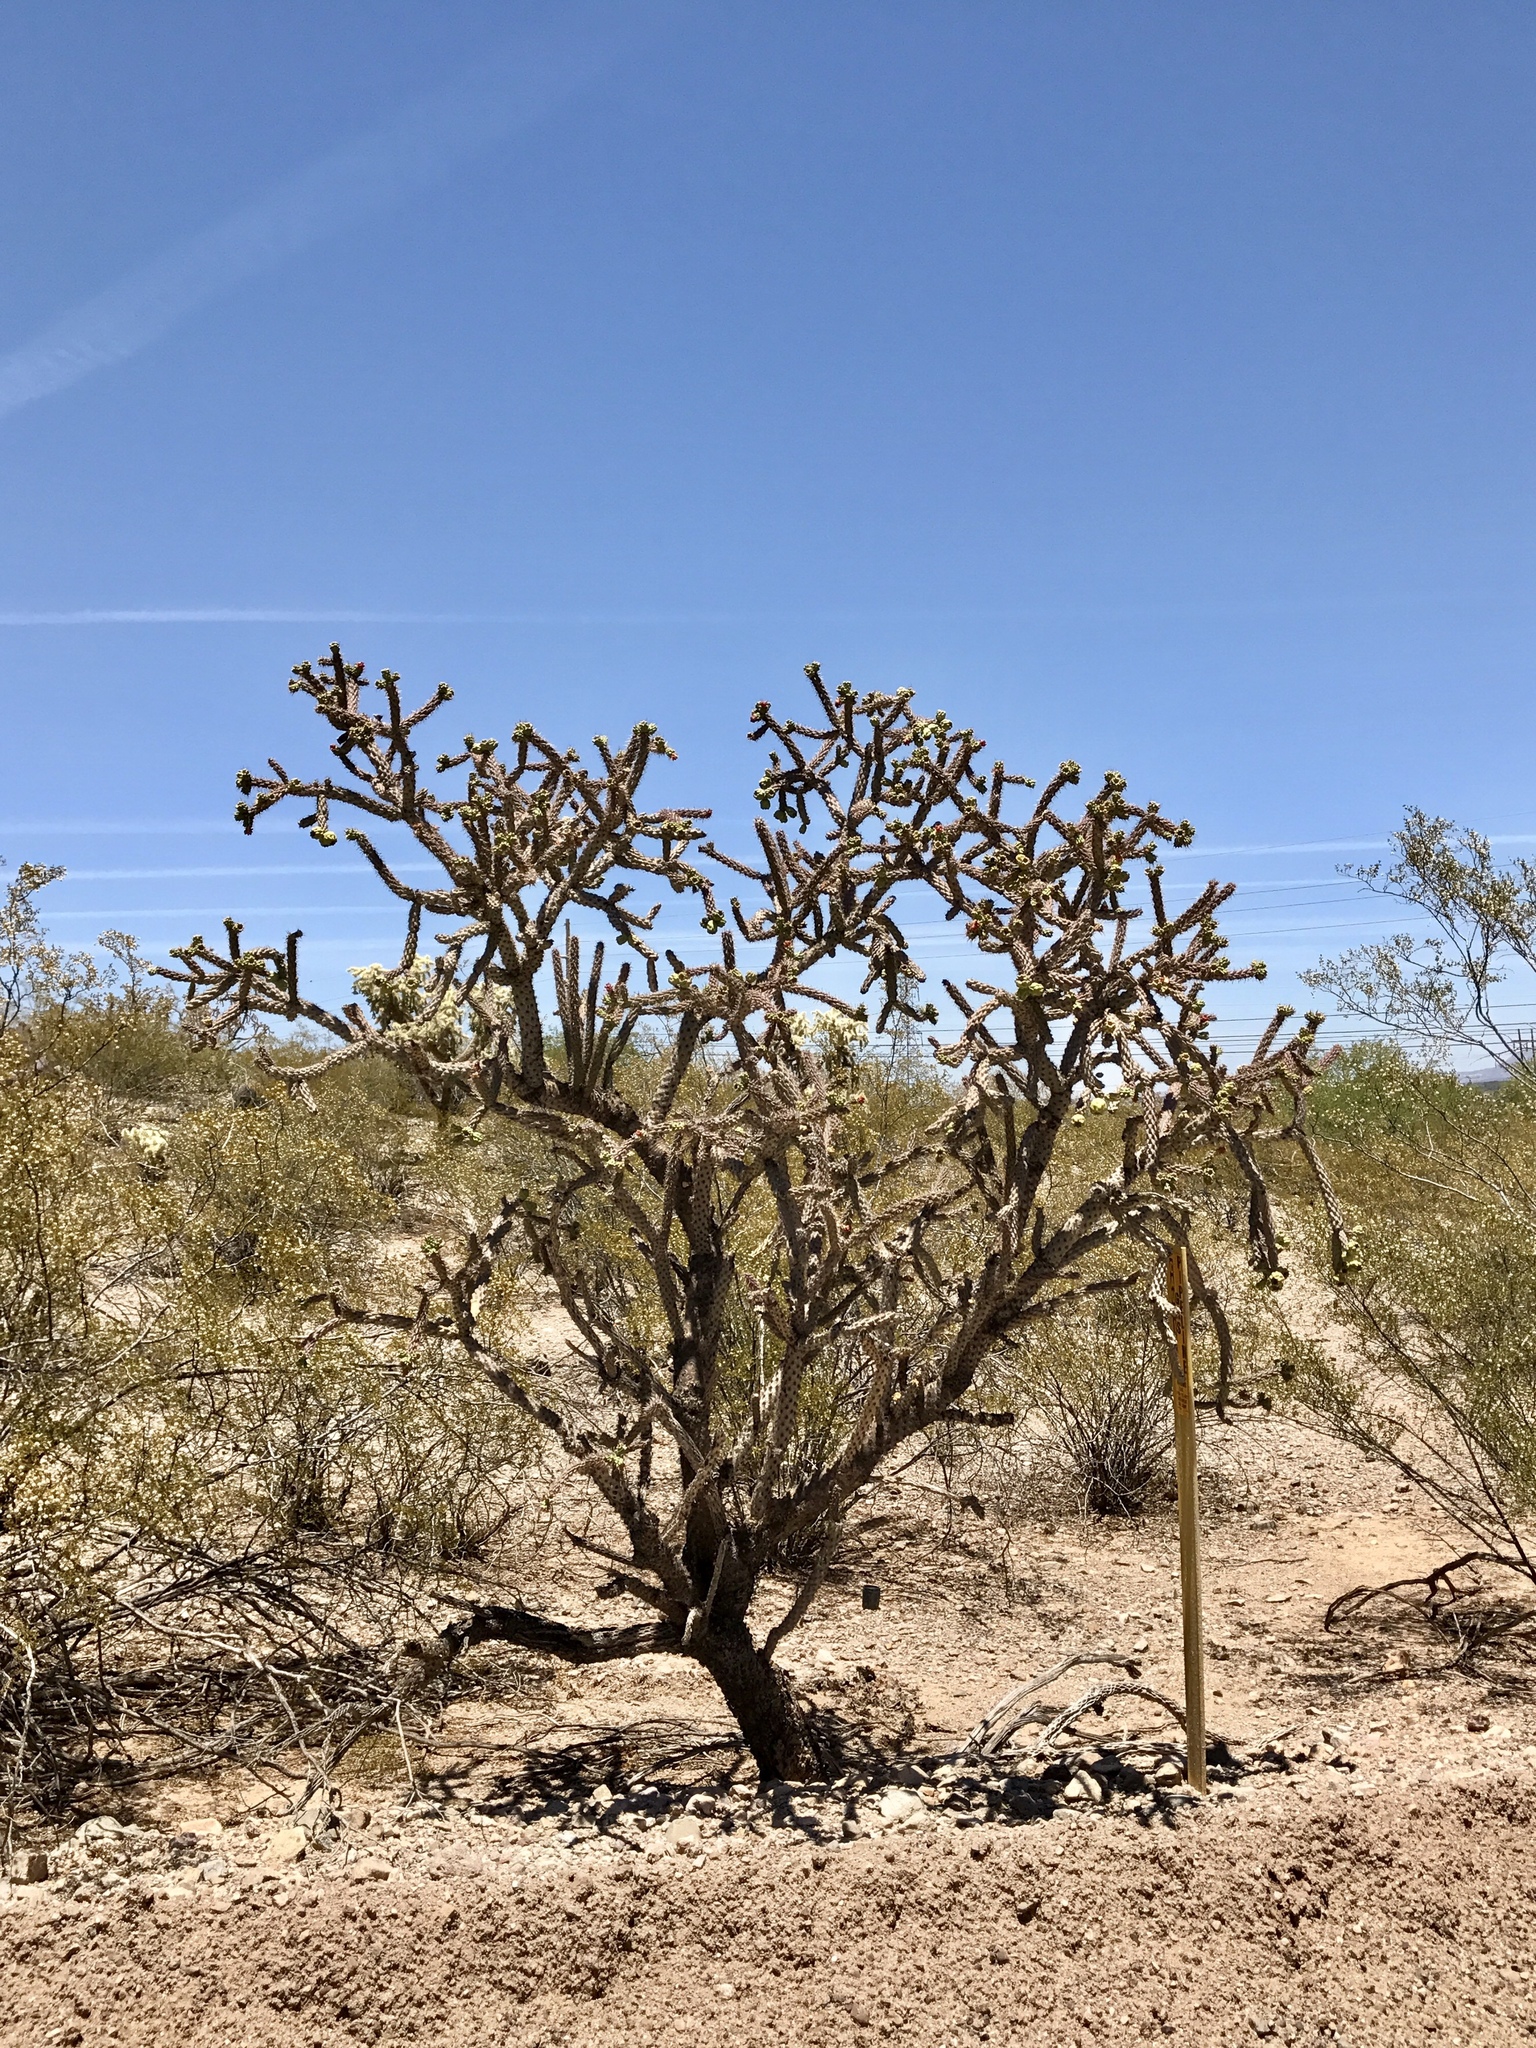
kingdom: Plantae
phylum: Tracheophyta
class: Magnoliopsida
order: Caryophyllales
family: Cactaceae
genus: Cylindropuntia
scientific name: Cylindropuntia imbricata
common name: Candelabrum cactus
